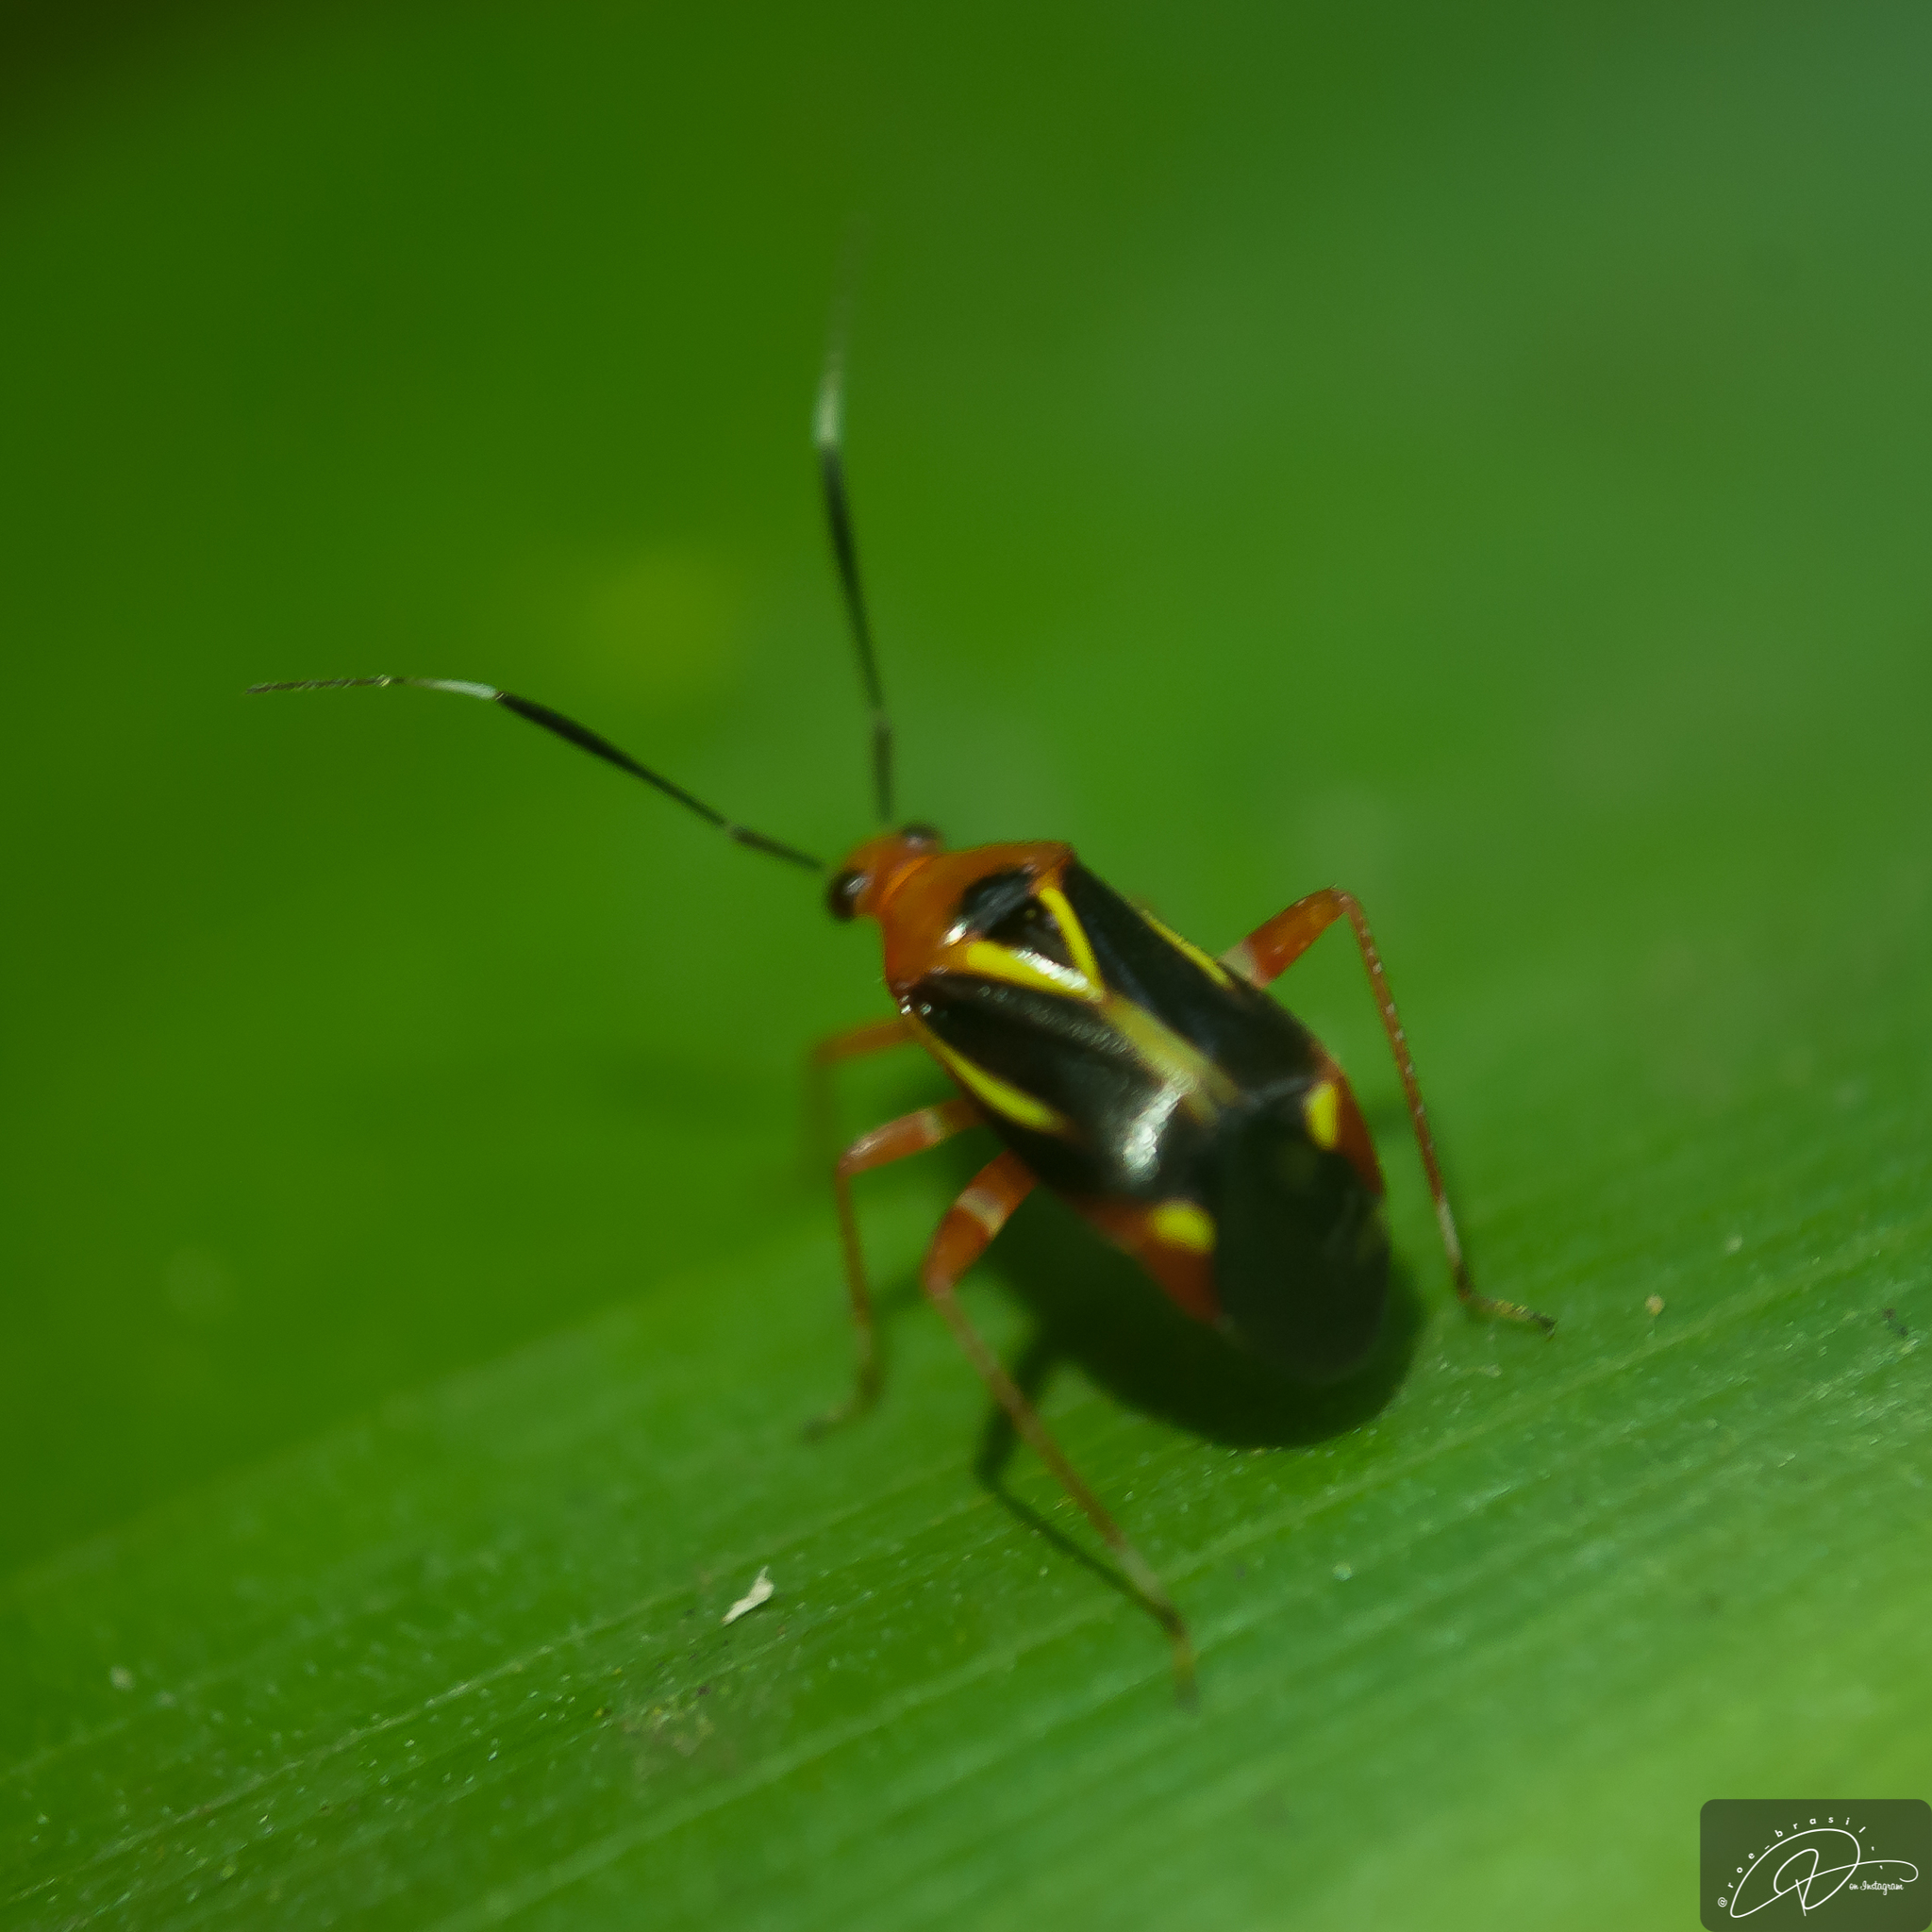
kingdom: Animalia
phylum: Arthropoda
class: Insecta
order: Hemiptera
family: Miridae
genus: Horciasinus
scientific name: Horciasinus wallengreni
